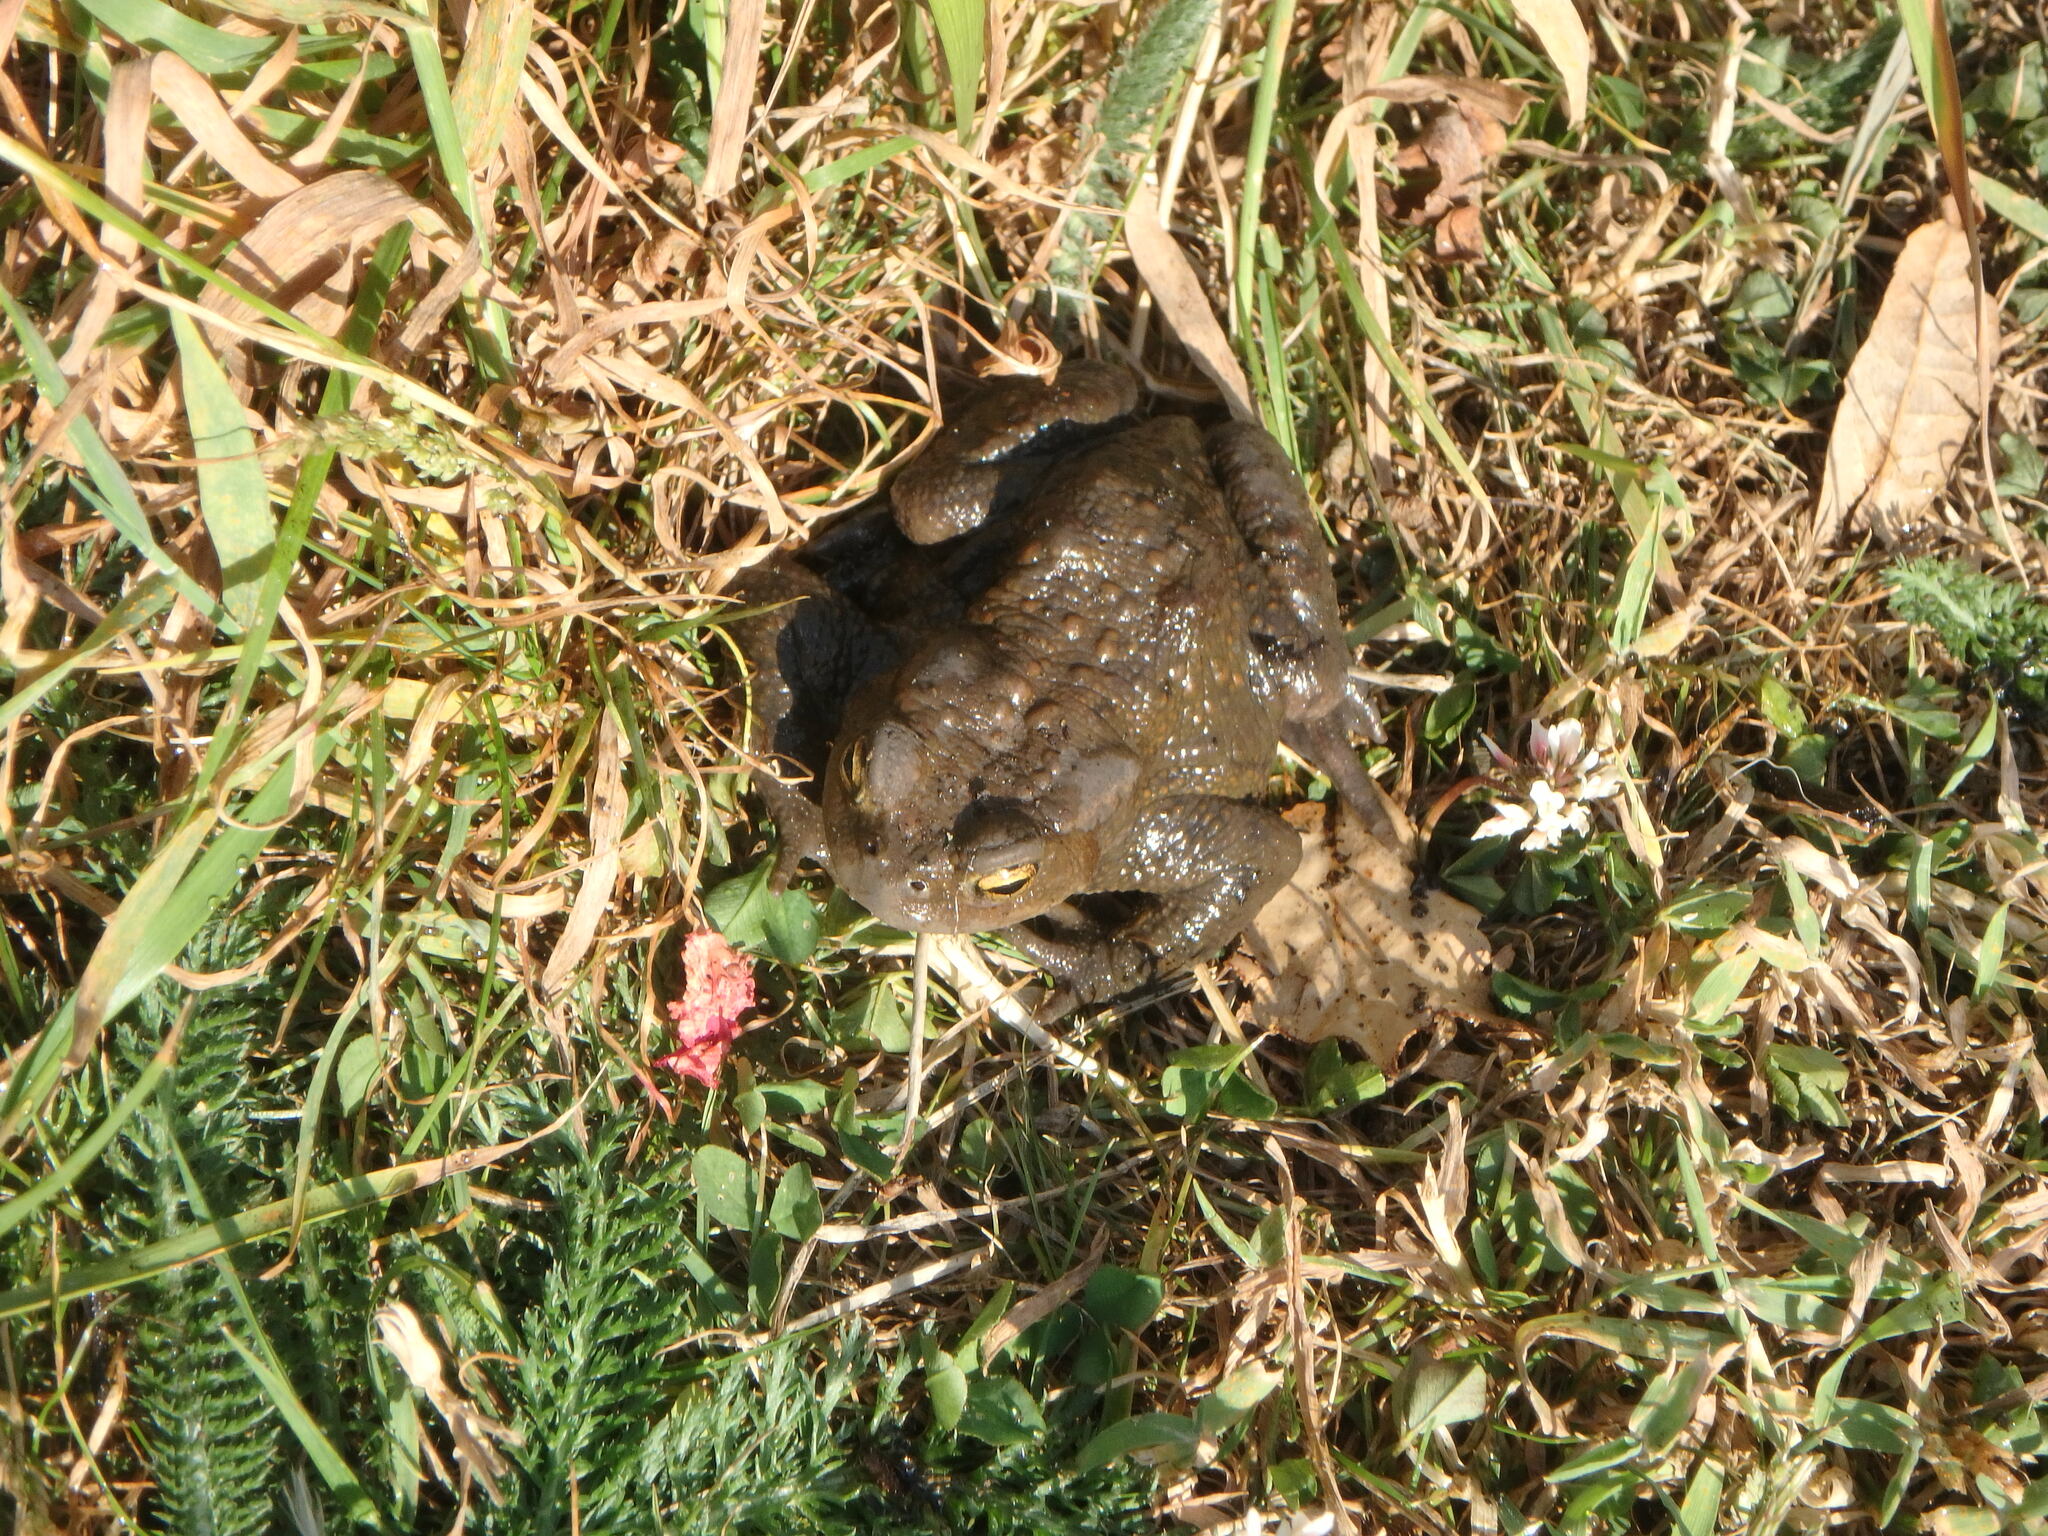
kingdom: Animalia
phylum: Chordata
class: Amphibia
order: Anura
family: Bufonidae
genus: Bufo
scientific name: Bufo bufo
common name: Common toad
